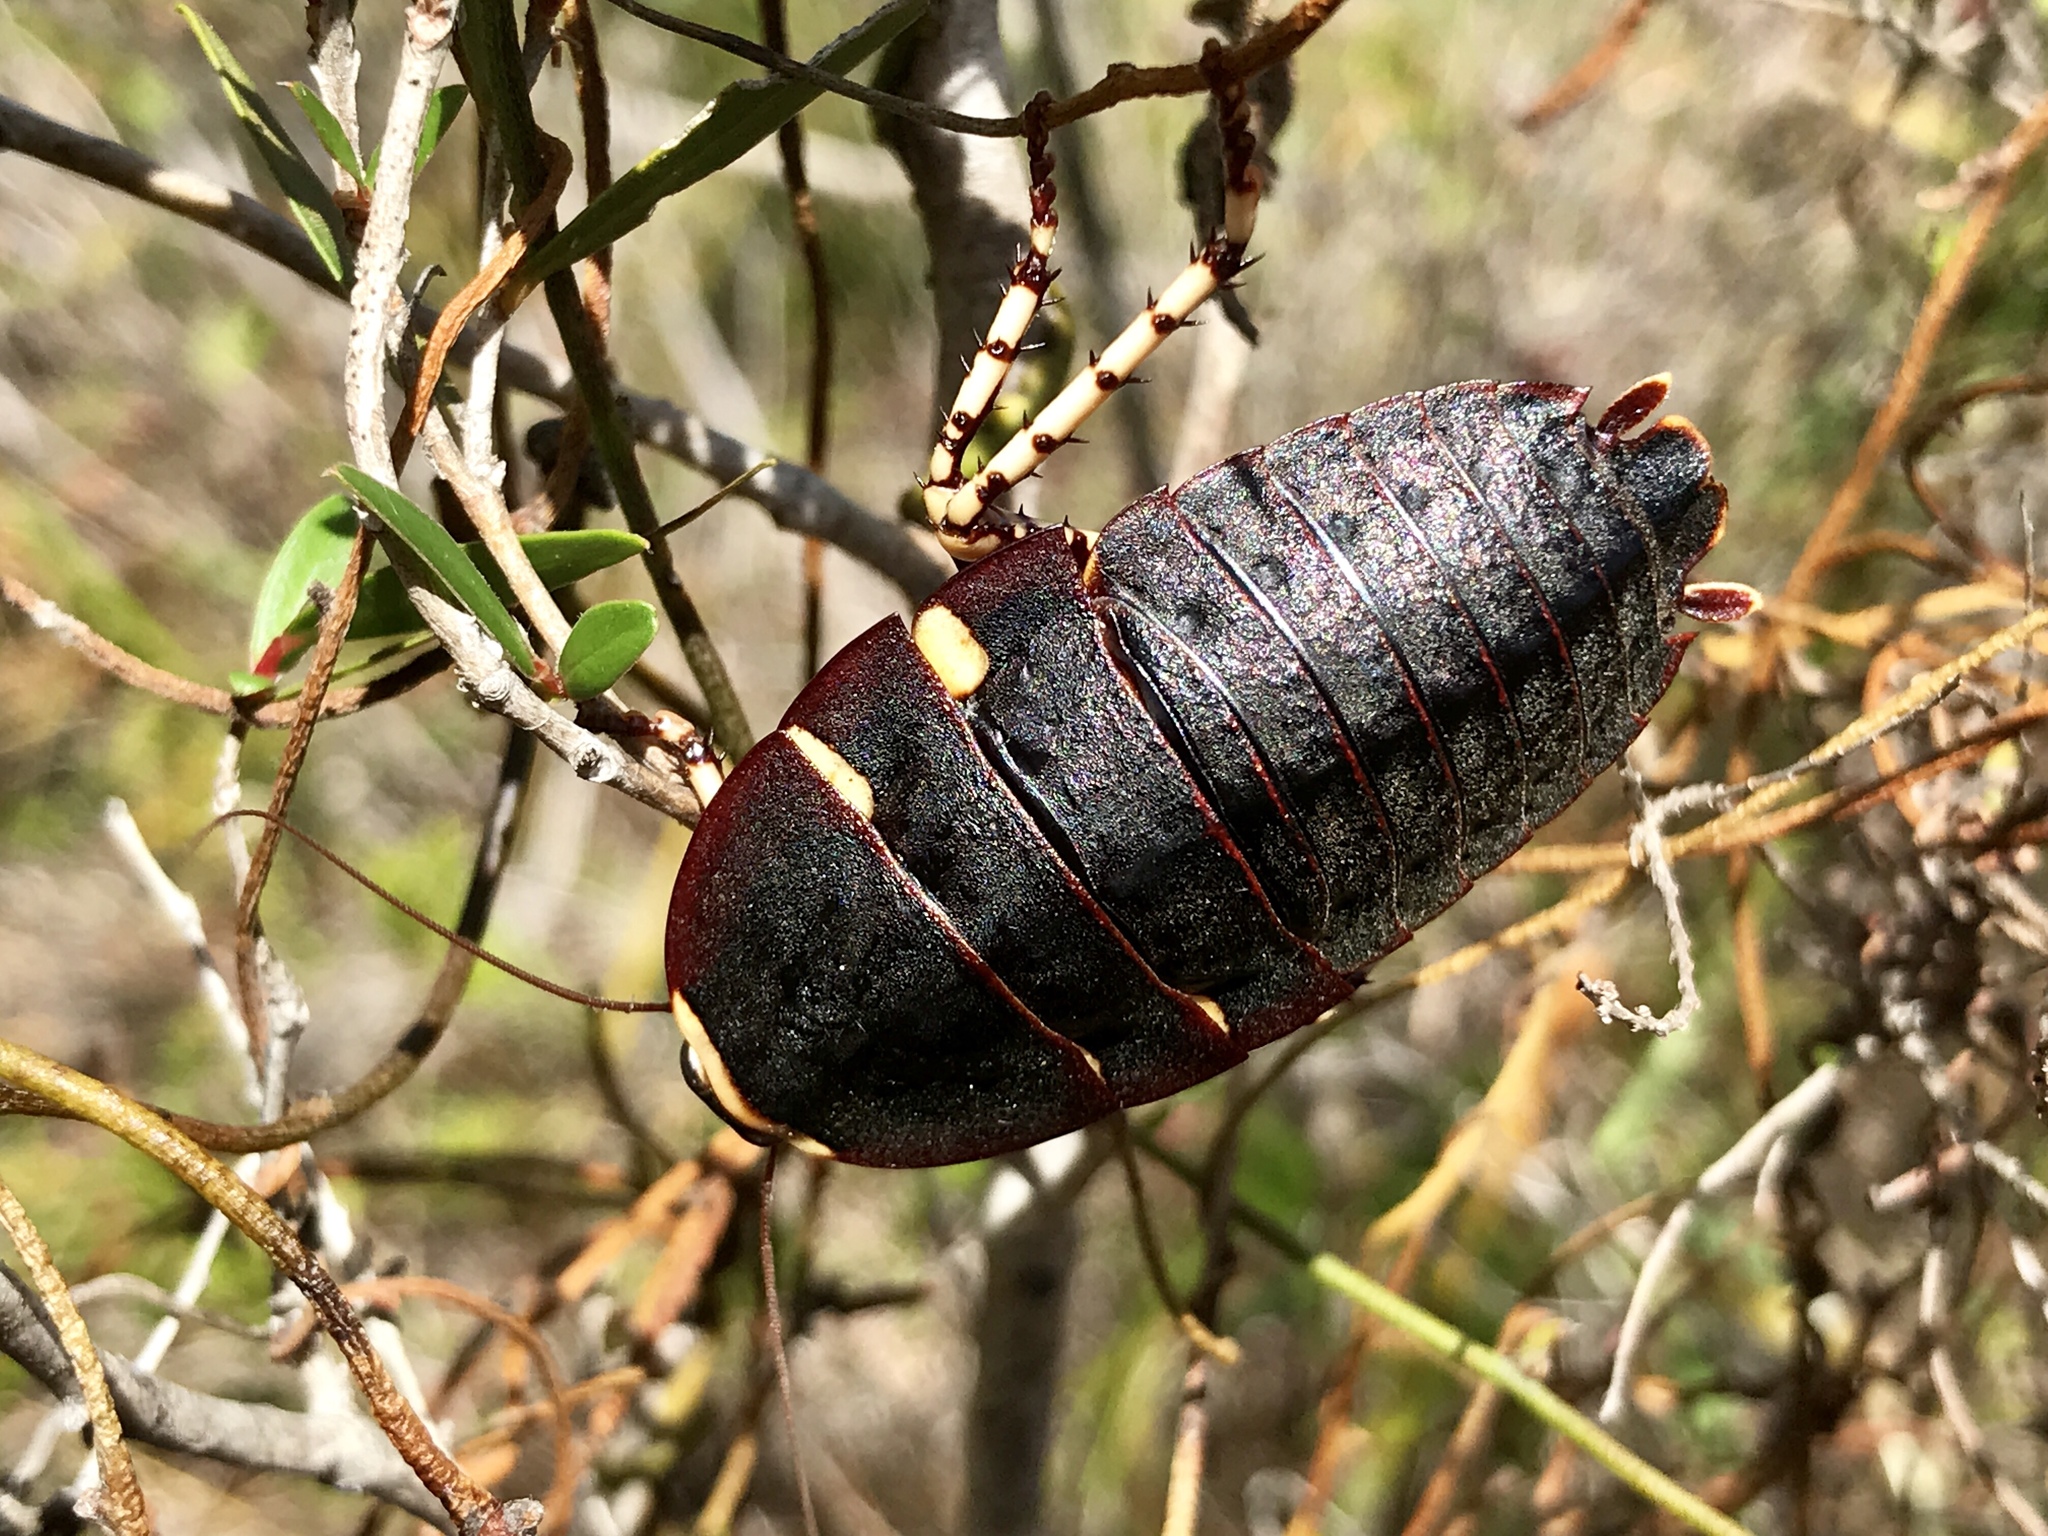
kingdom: Animalia
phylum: Arthropoda
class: Insecta
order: Blattodea
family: Blattidae
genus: Polyzosteria
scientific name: Polyzosteria cuprea
